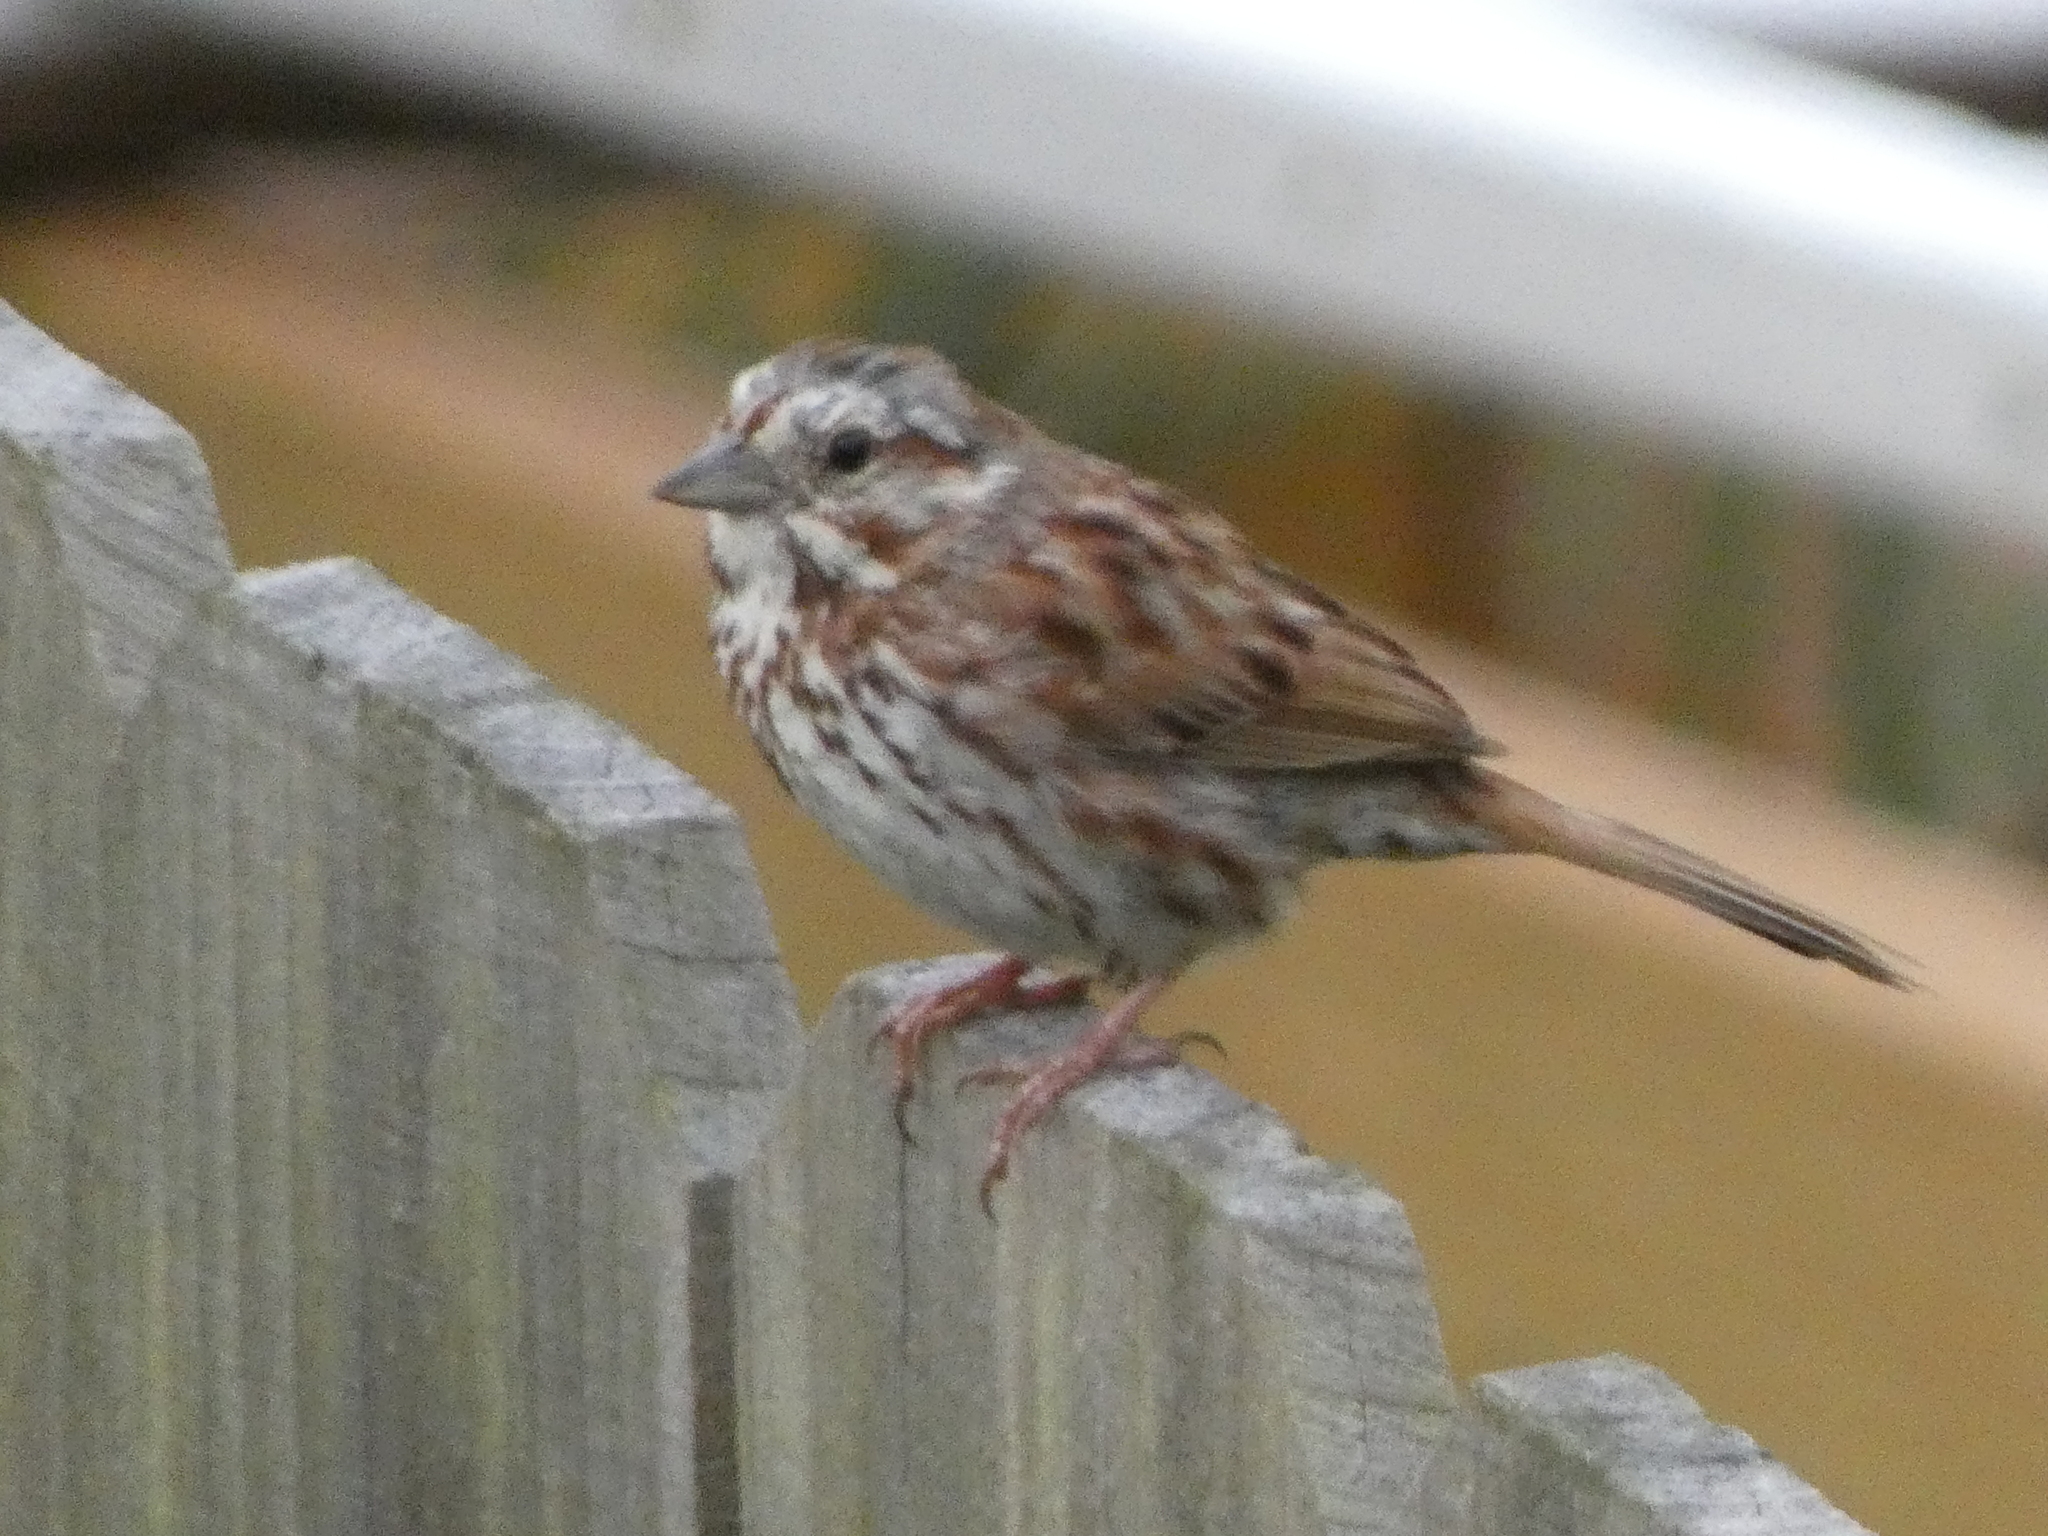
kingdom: Animalia
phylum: Chordata
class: Aves
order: Passeriformes
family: Passerellidae
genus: Melospiza
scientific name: Melospiza melodia
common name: Song sparrow
